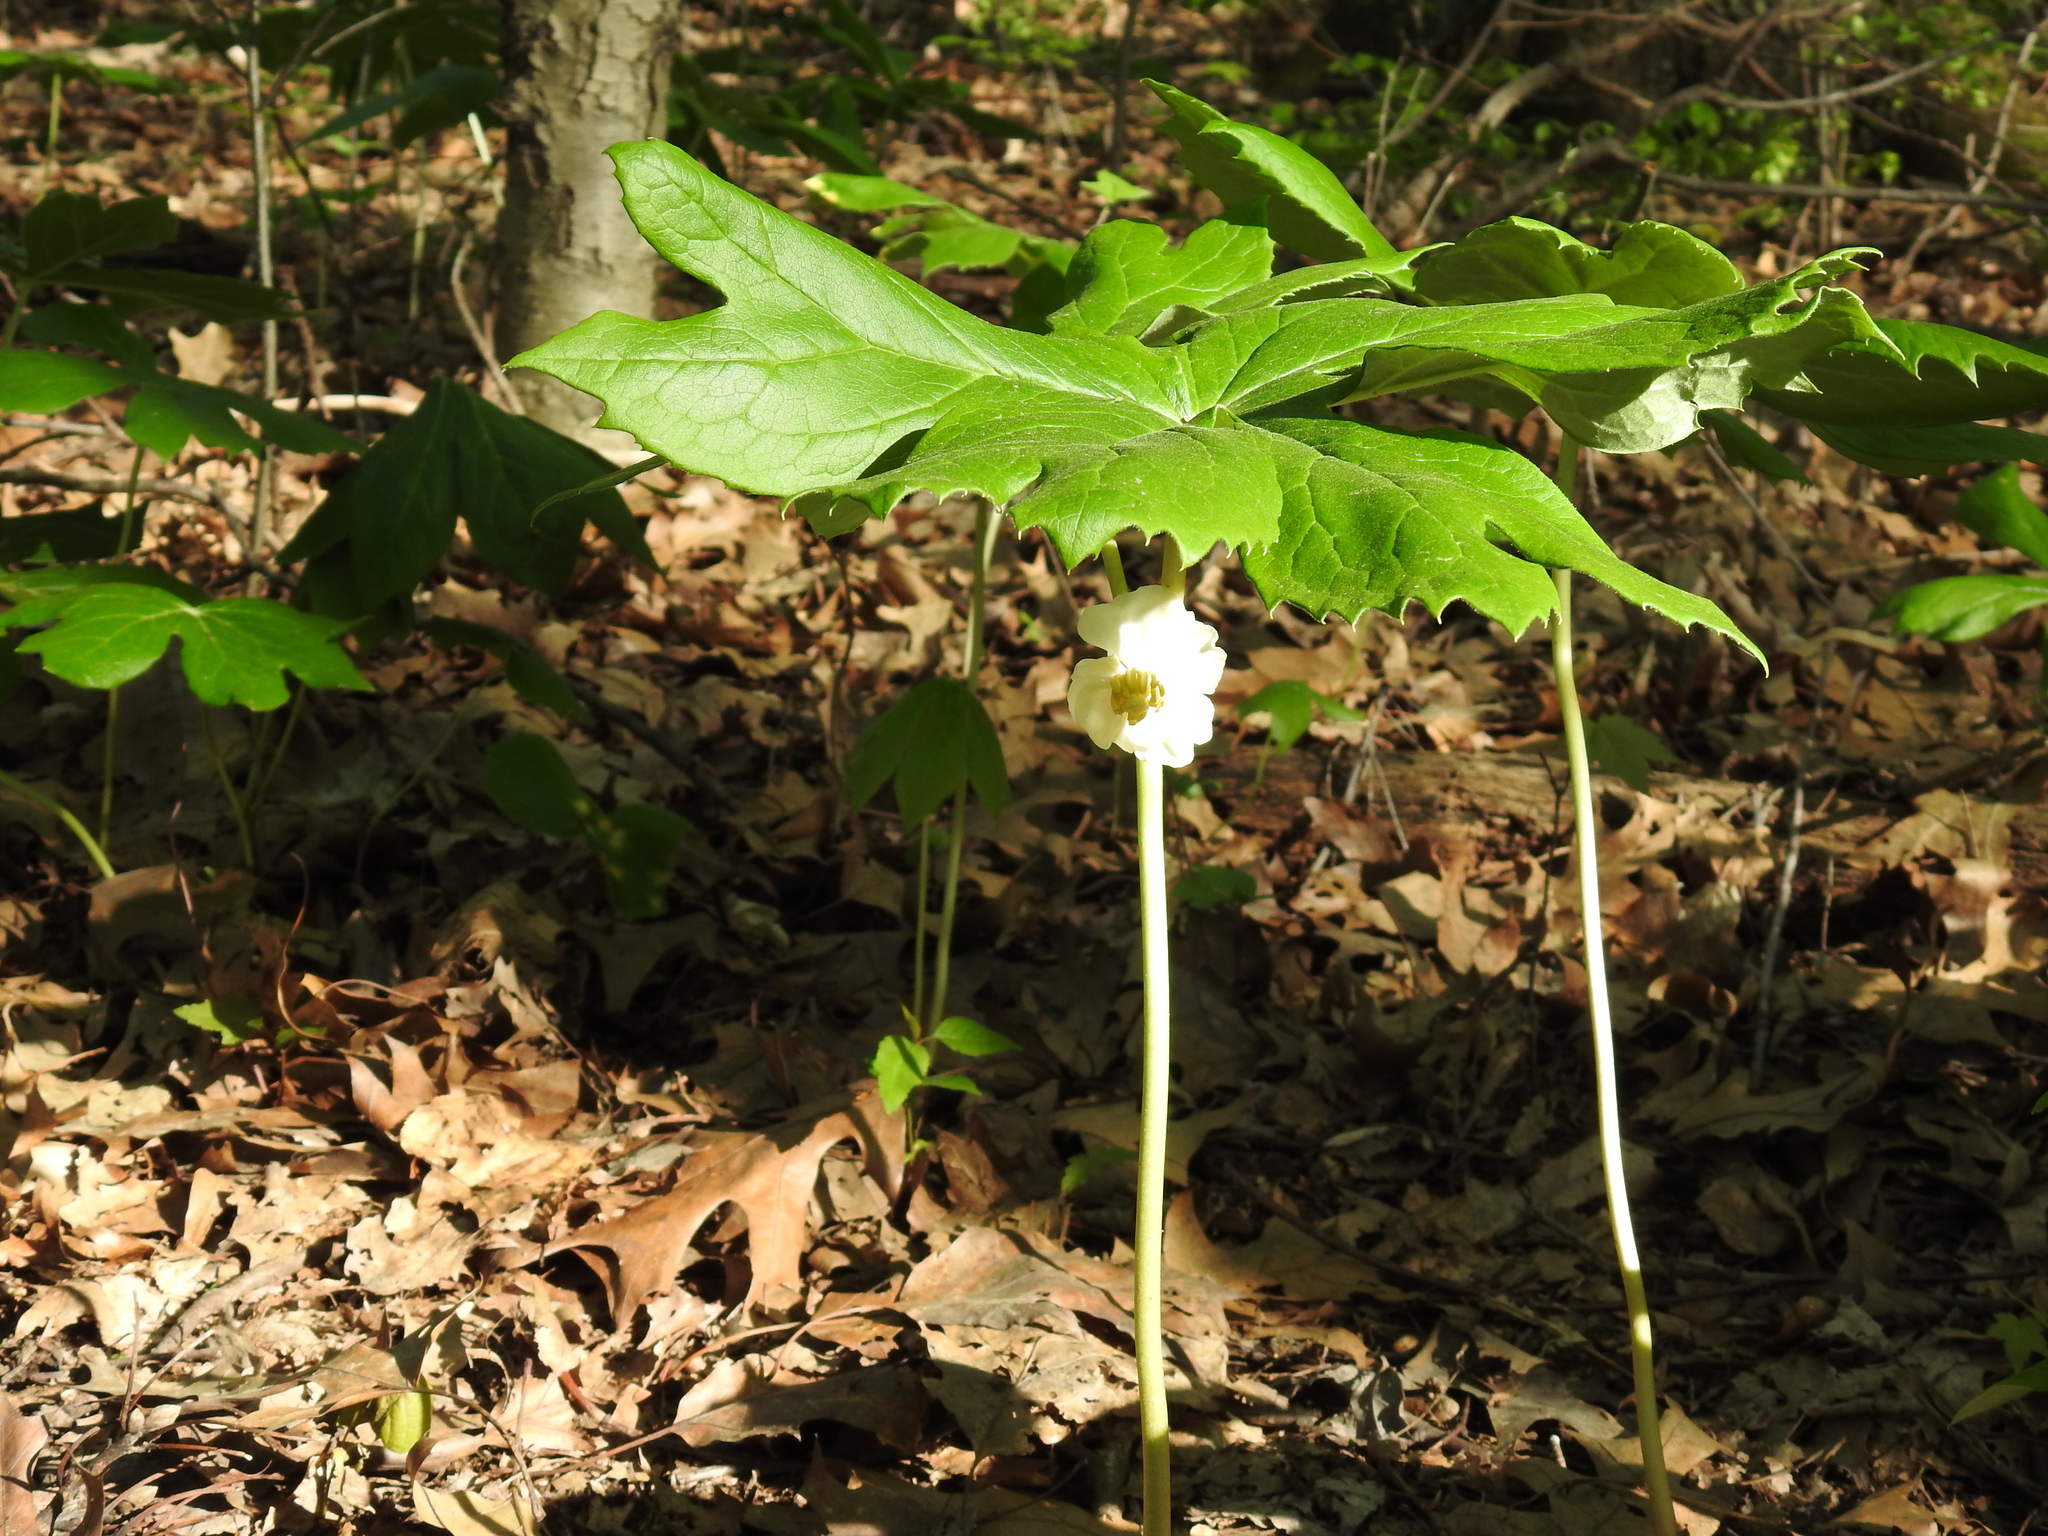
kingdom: Plantae
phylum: Tracheophyta
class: Magnoliopsida
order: Ranunculales
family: Berberidaceae
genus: Podophyllum
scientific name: Podophyllum peltatum
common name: Wild mandrake
